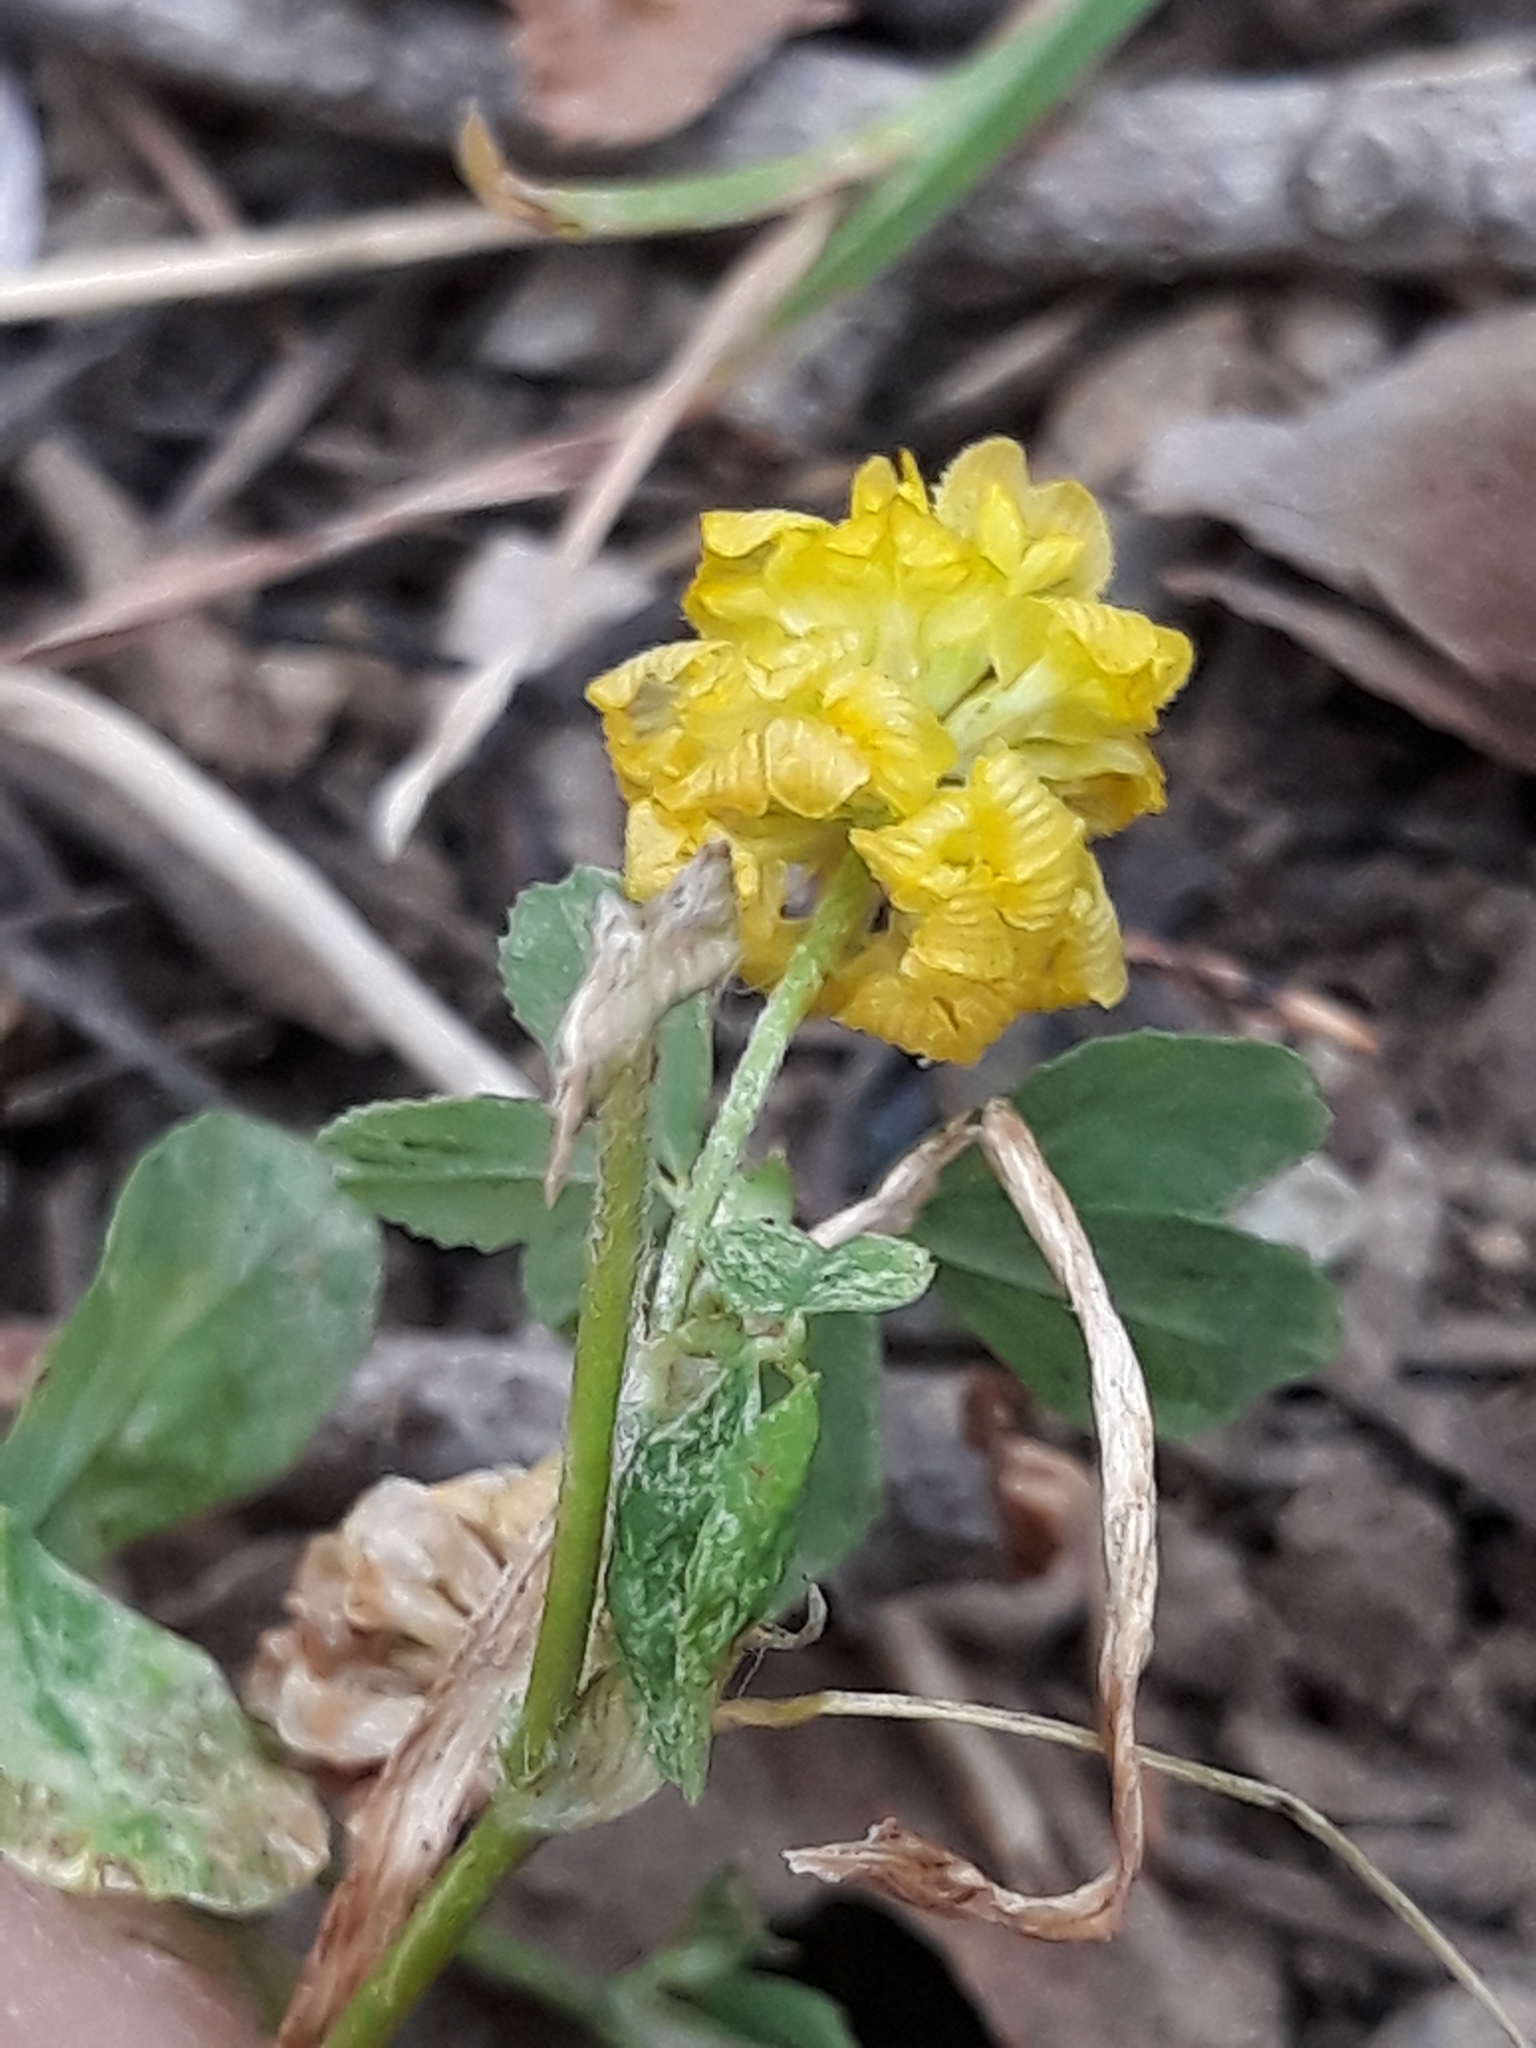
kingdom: Plantae
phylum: Tracheophyta
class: Magnoliopsida
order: Fabales
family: Fabaceae
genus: Trifolium
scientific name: Trifolium campestre
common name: Field clover
